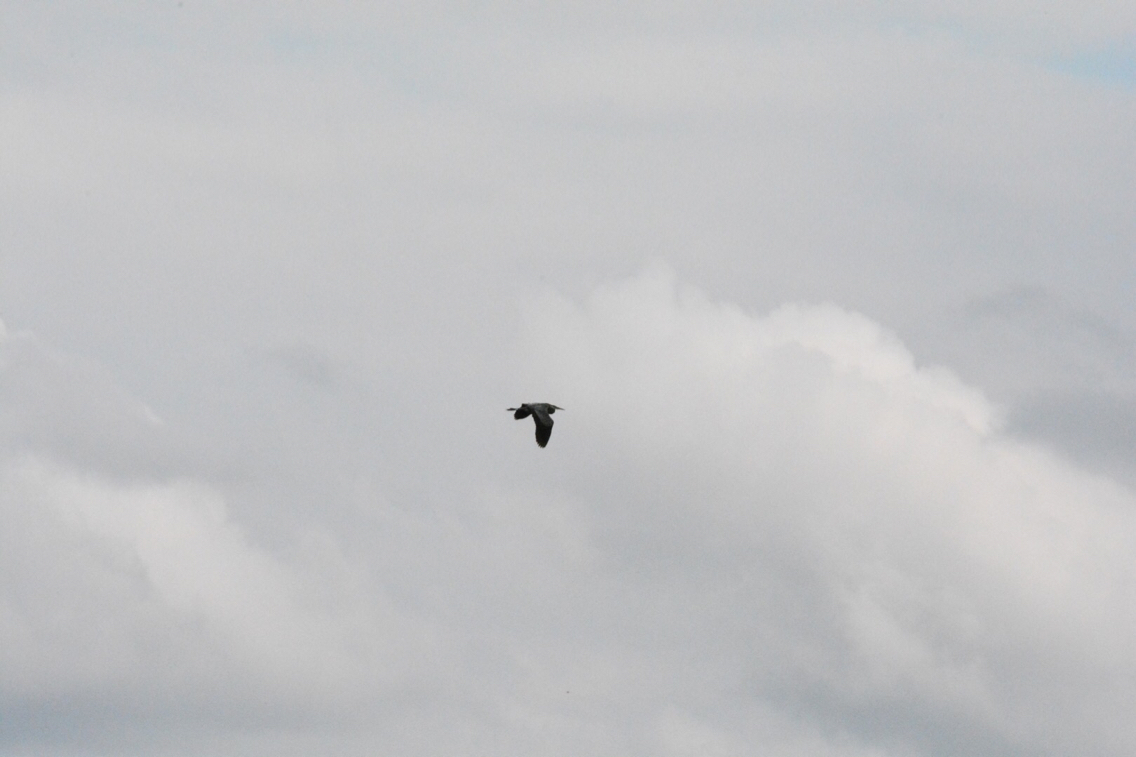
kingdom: Animalia
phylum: Chordata
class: Aves
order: Pelecaniformes
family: Ardeidae
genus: Ardea
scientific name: Ardea herodias
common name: Great blue heron
